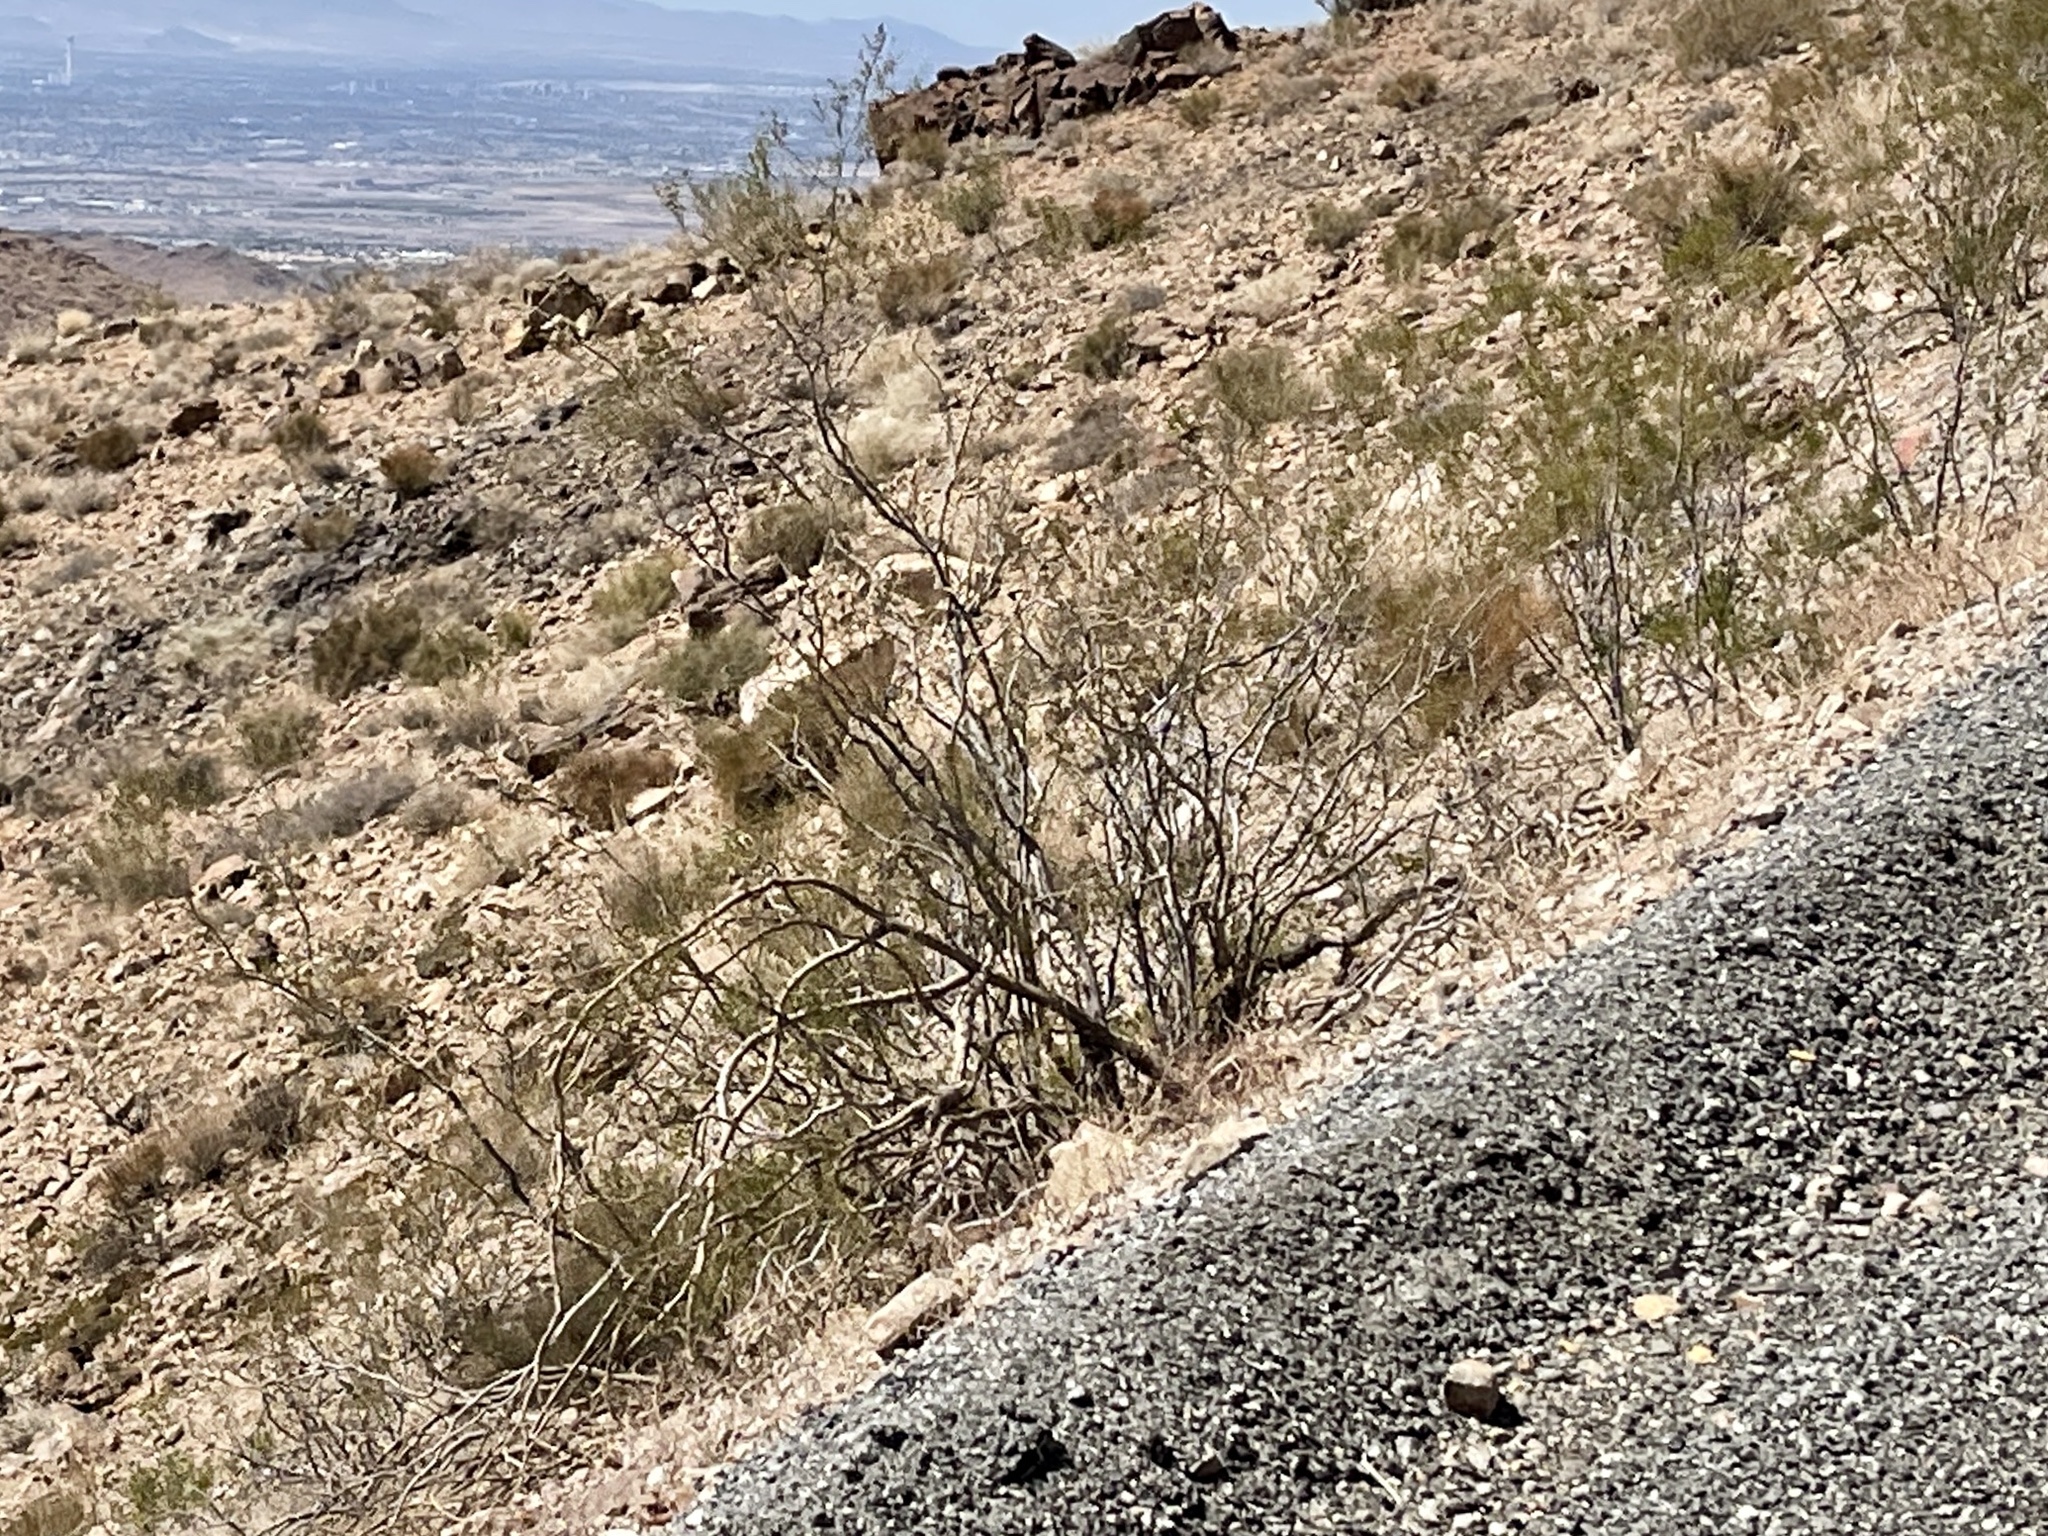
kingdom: Plantae
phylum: Tracheophyta
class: Magnoliopsida
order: Zygophyllales
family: Zygophyllaceae
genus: Larrea
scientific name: Larrea tridentata
